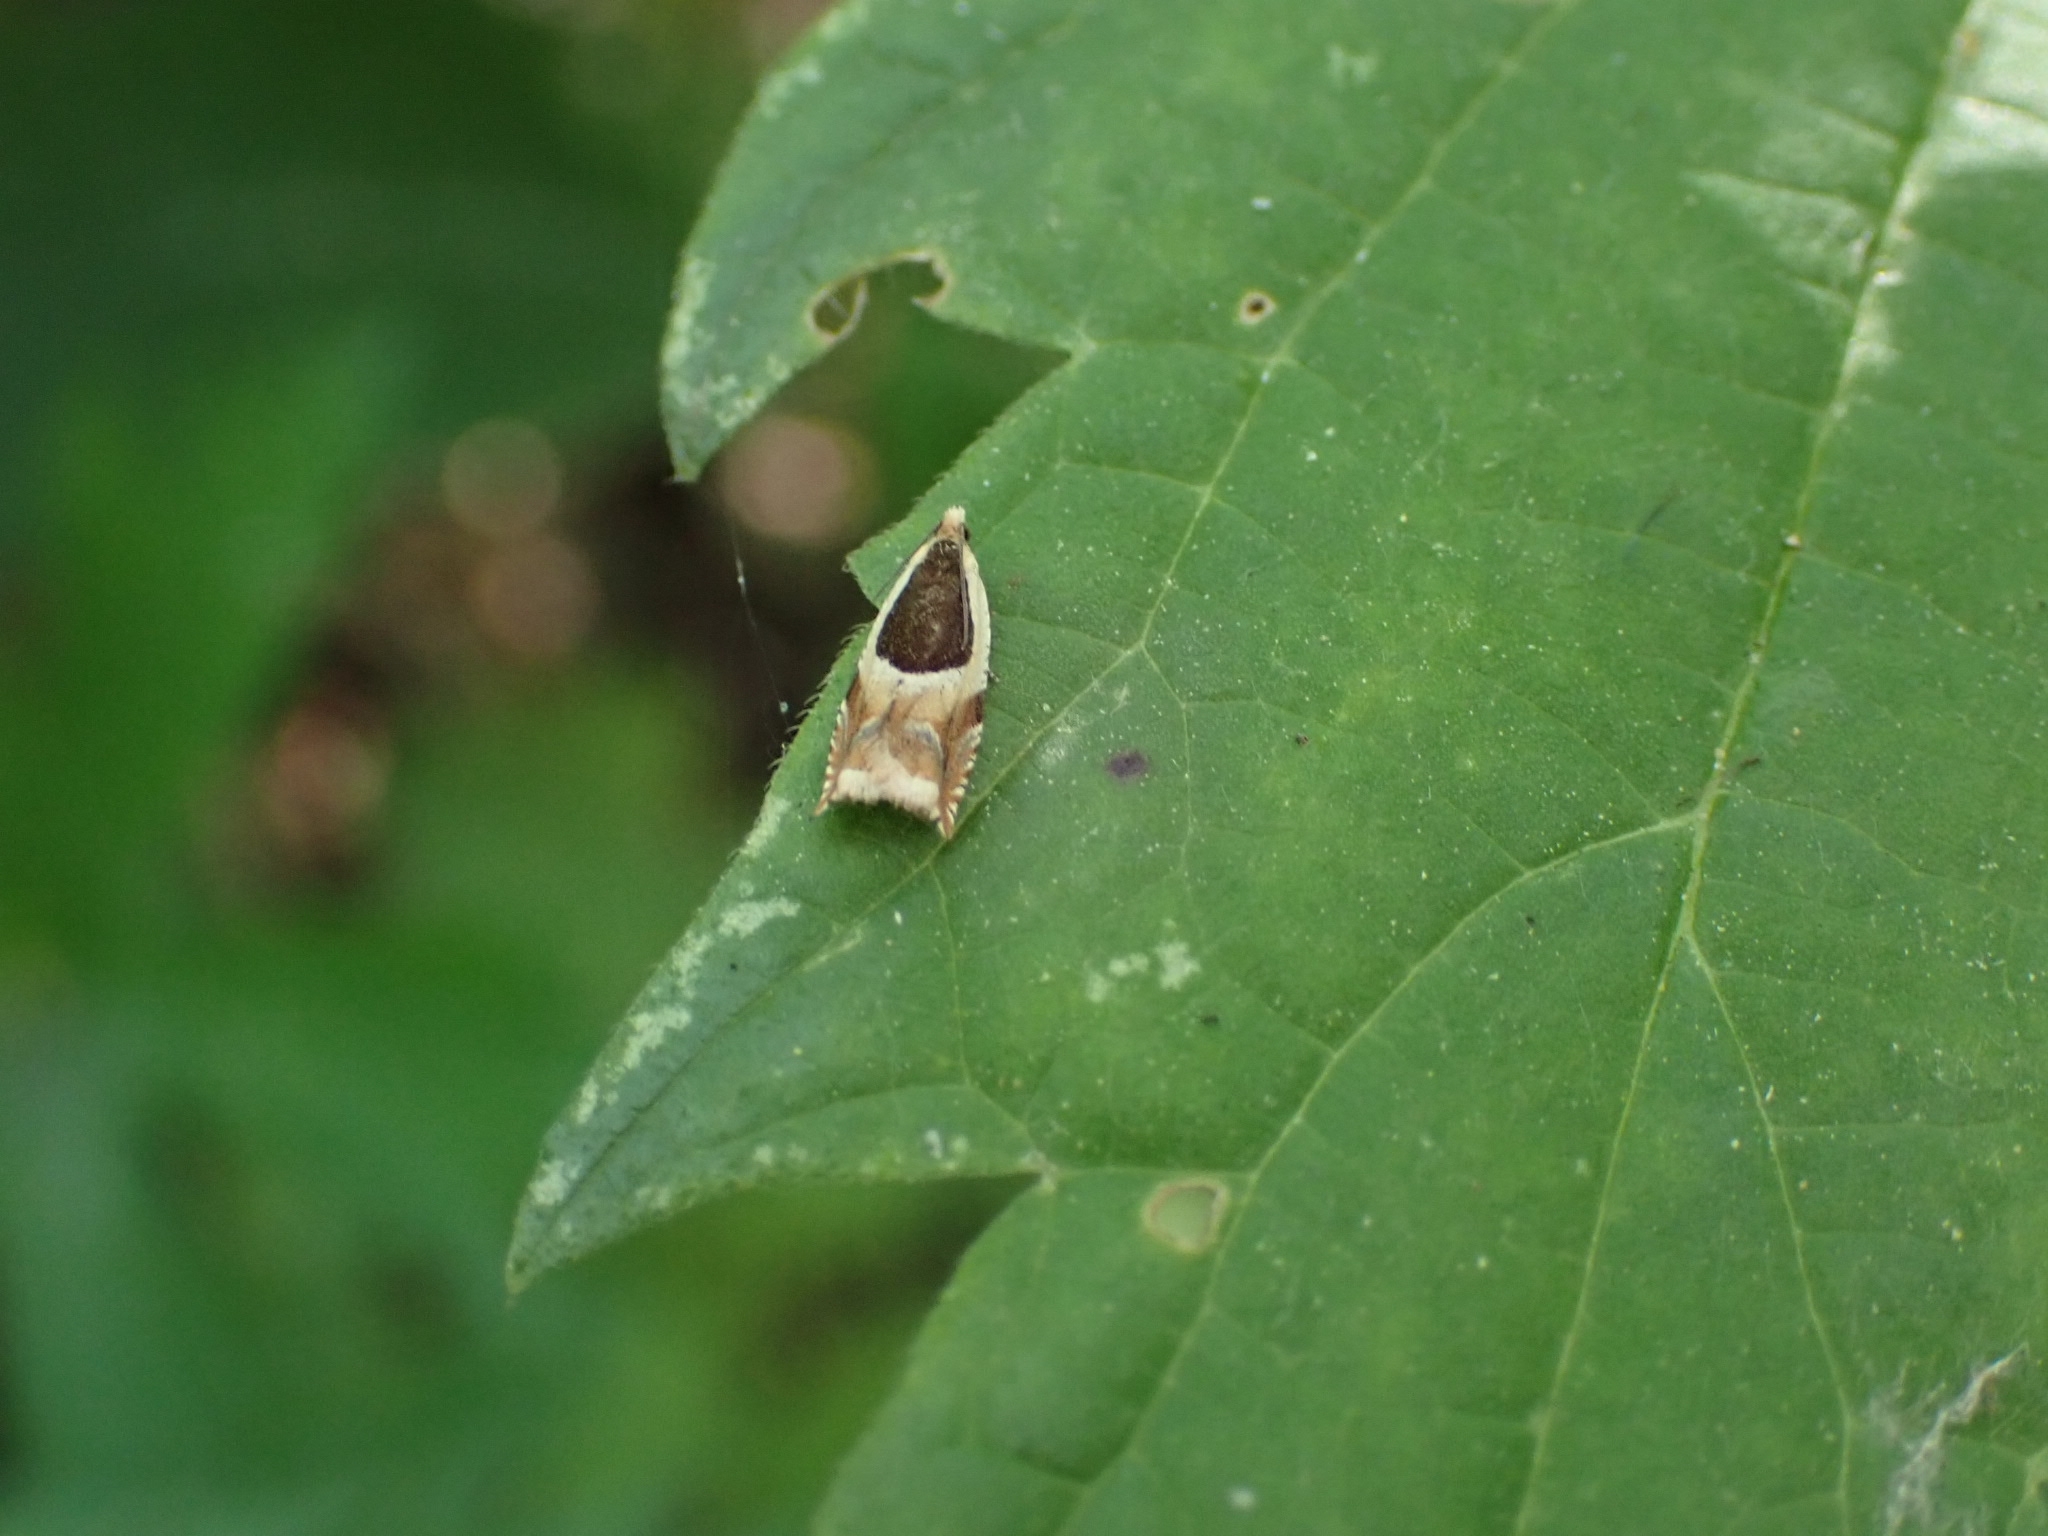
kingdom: Animalia
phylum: Arthropoda
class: Insecta
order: Lepidoptera
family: Tortricidae
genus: Ancylis
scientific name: Ancylis badiana
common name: Common roller
